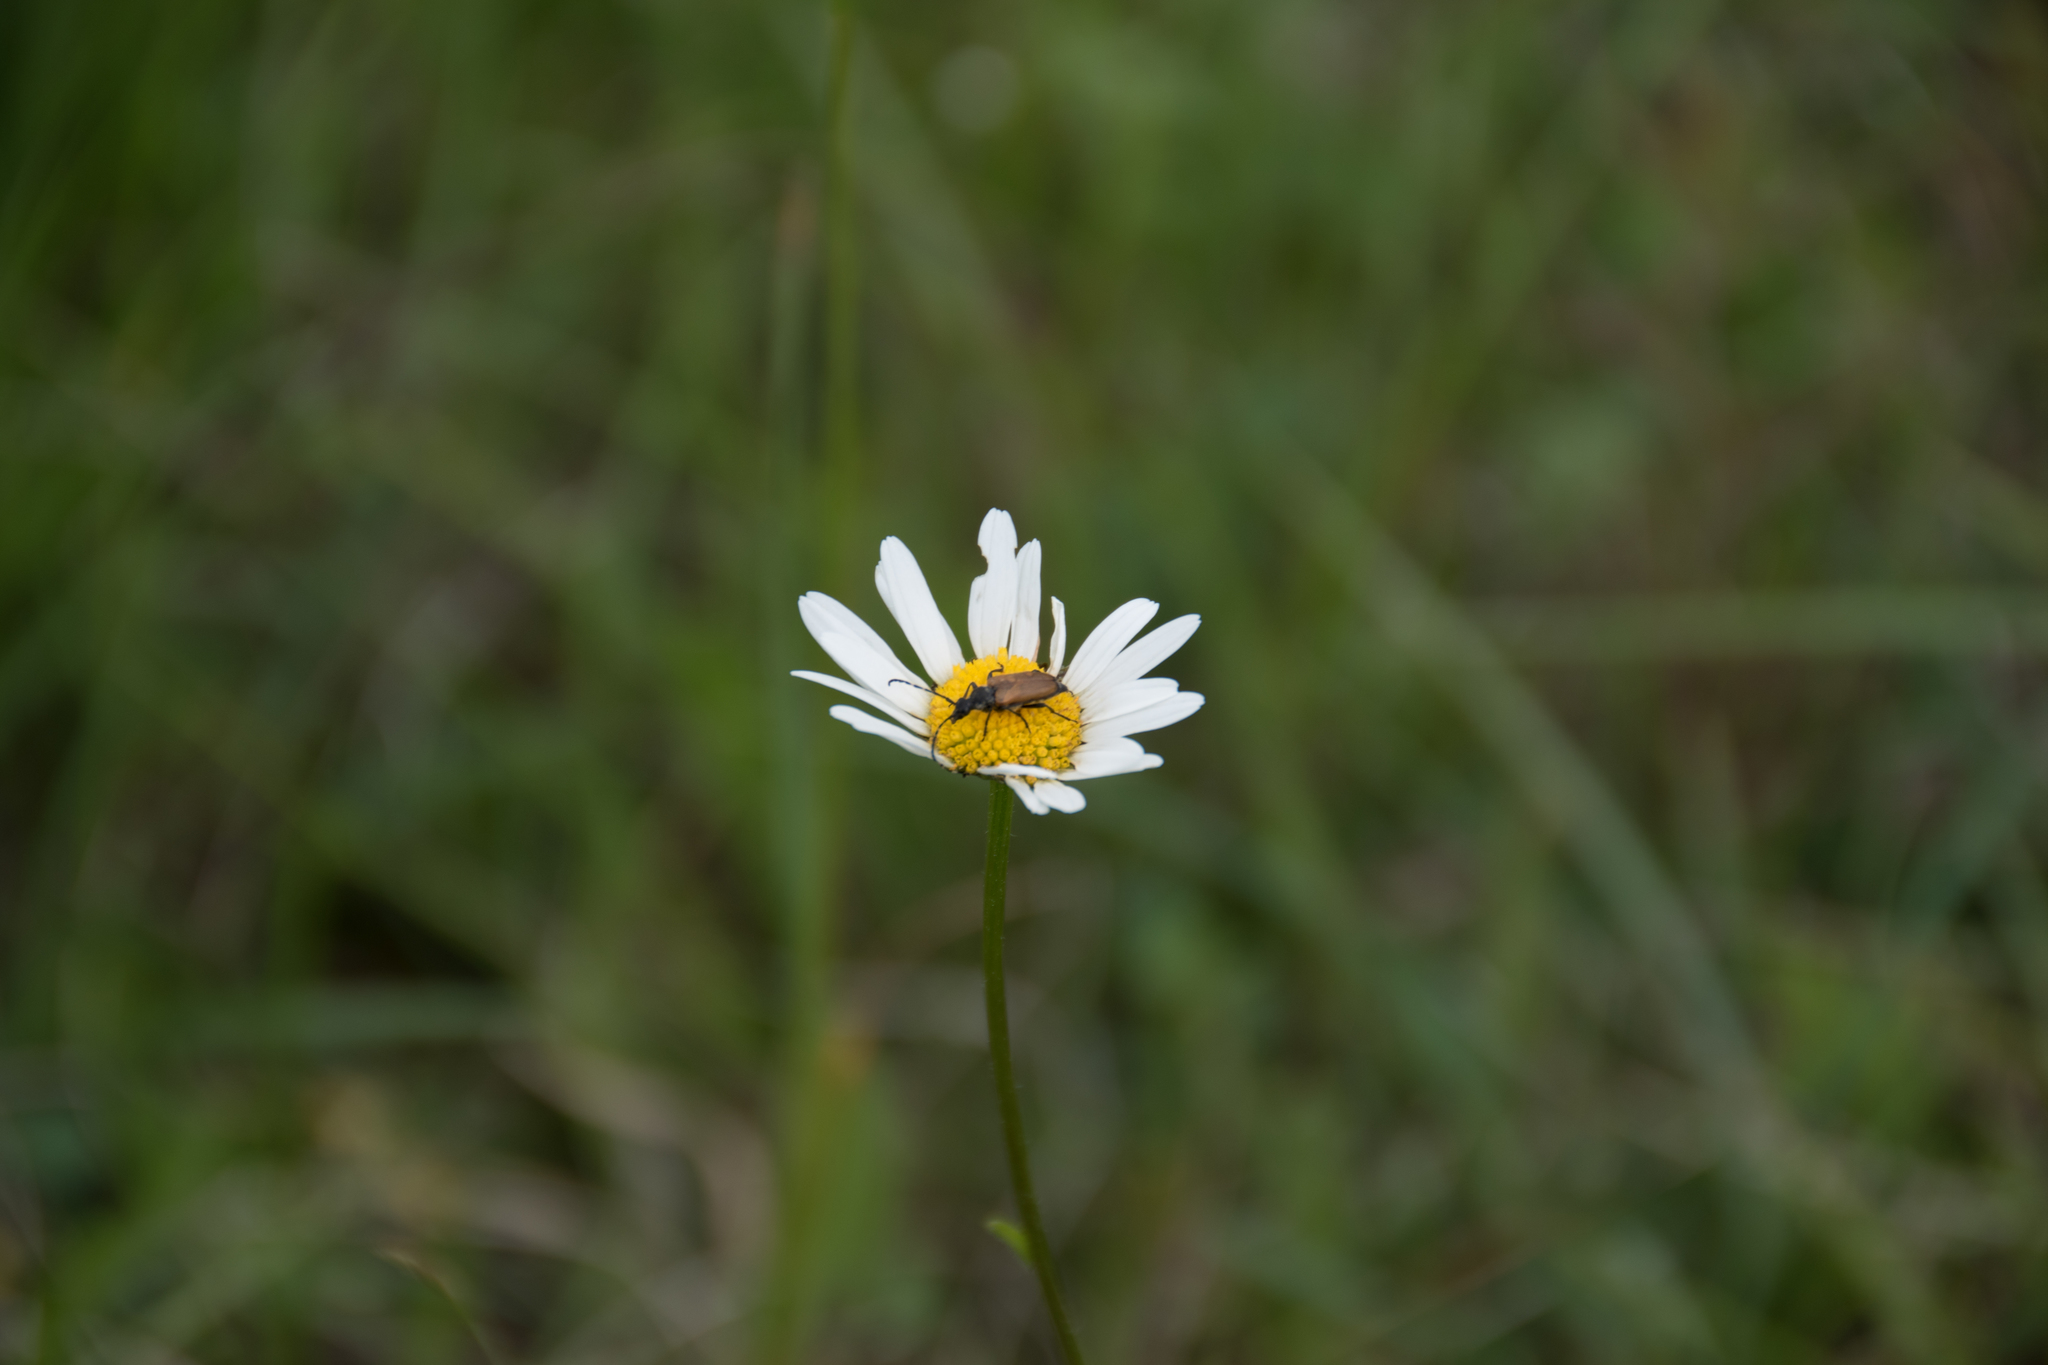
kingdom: Animalia
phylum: Arthropoda
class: Insecta
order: Coleoptera
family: Cerambycidae
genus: Paracorymbia
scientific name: Paracorymbia maculicornis
